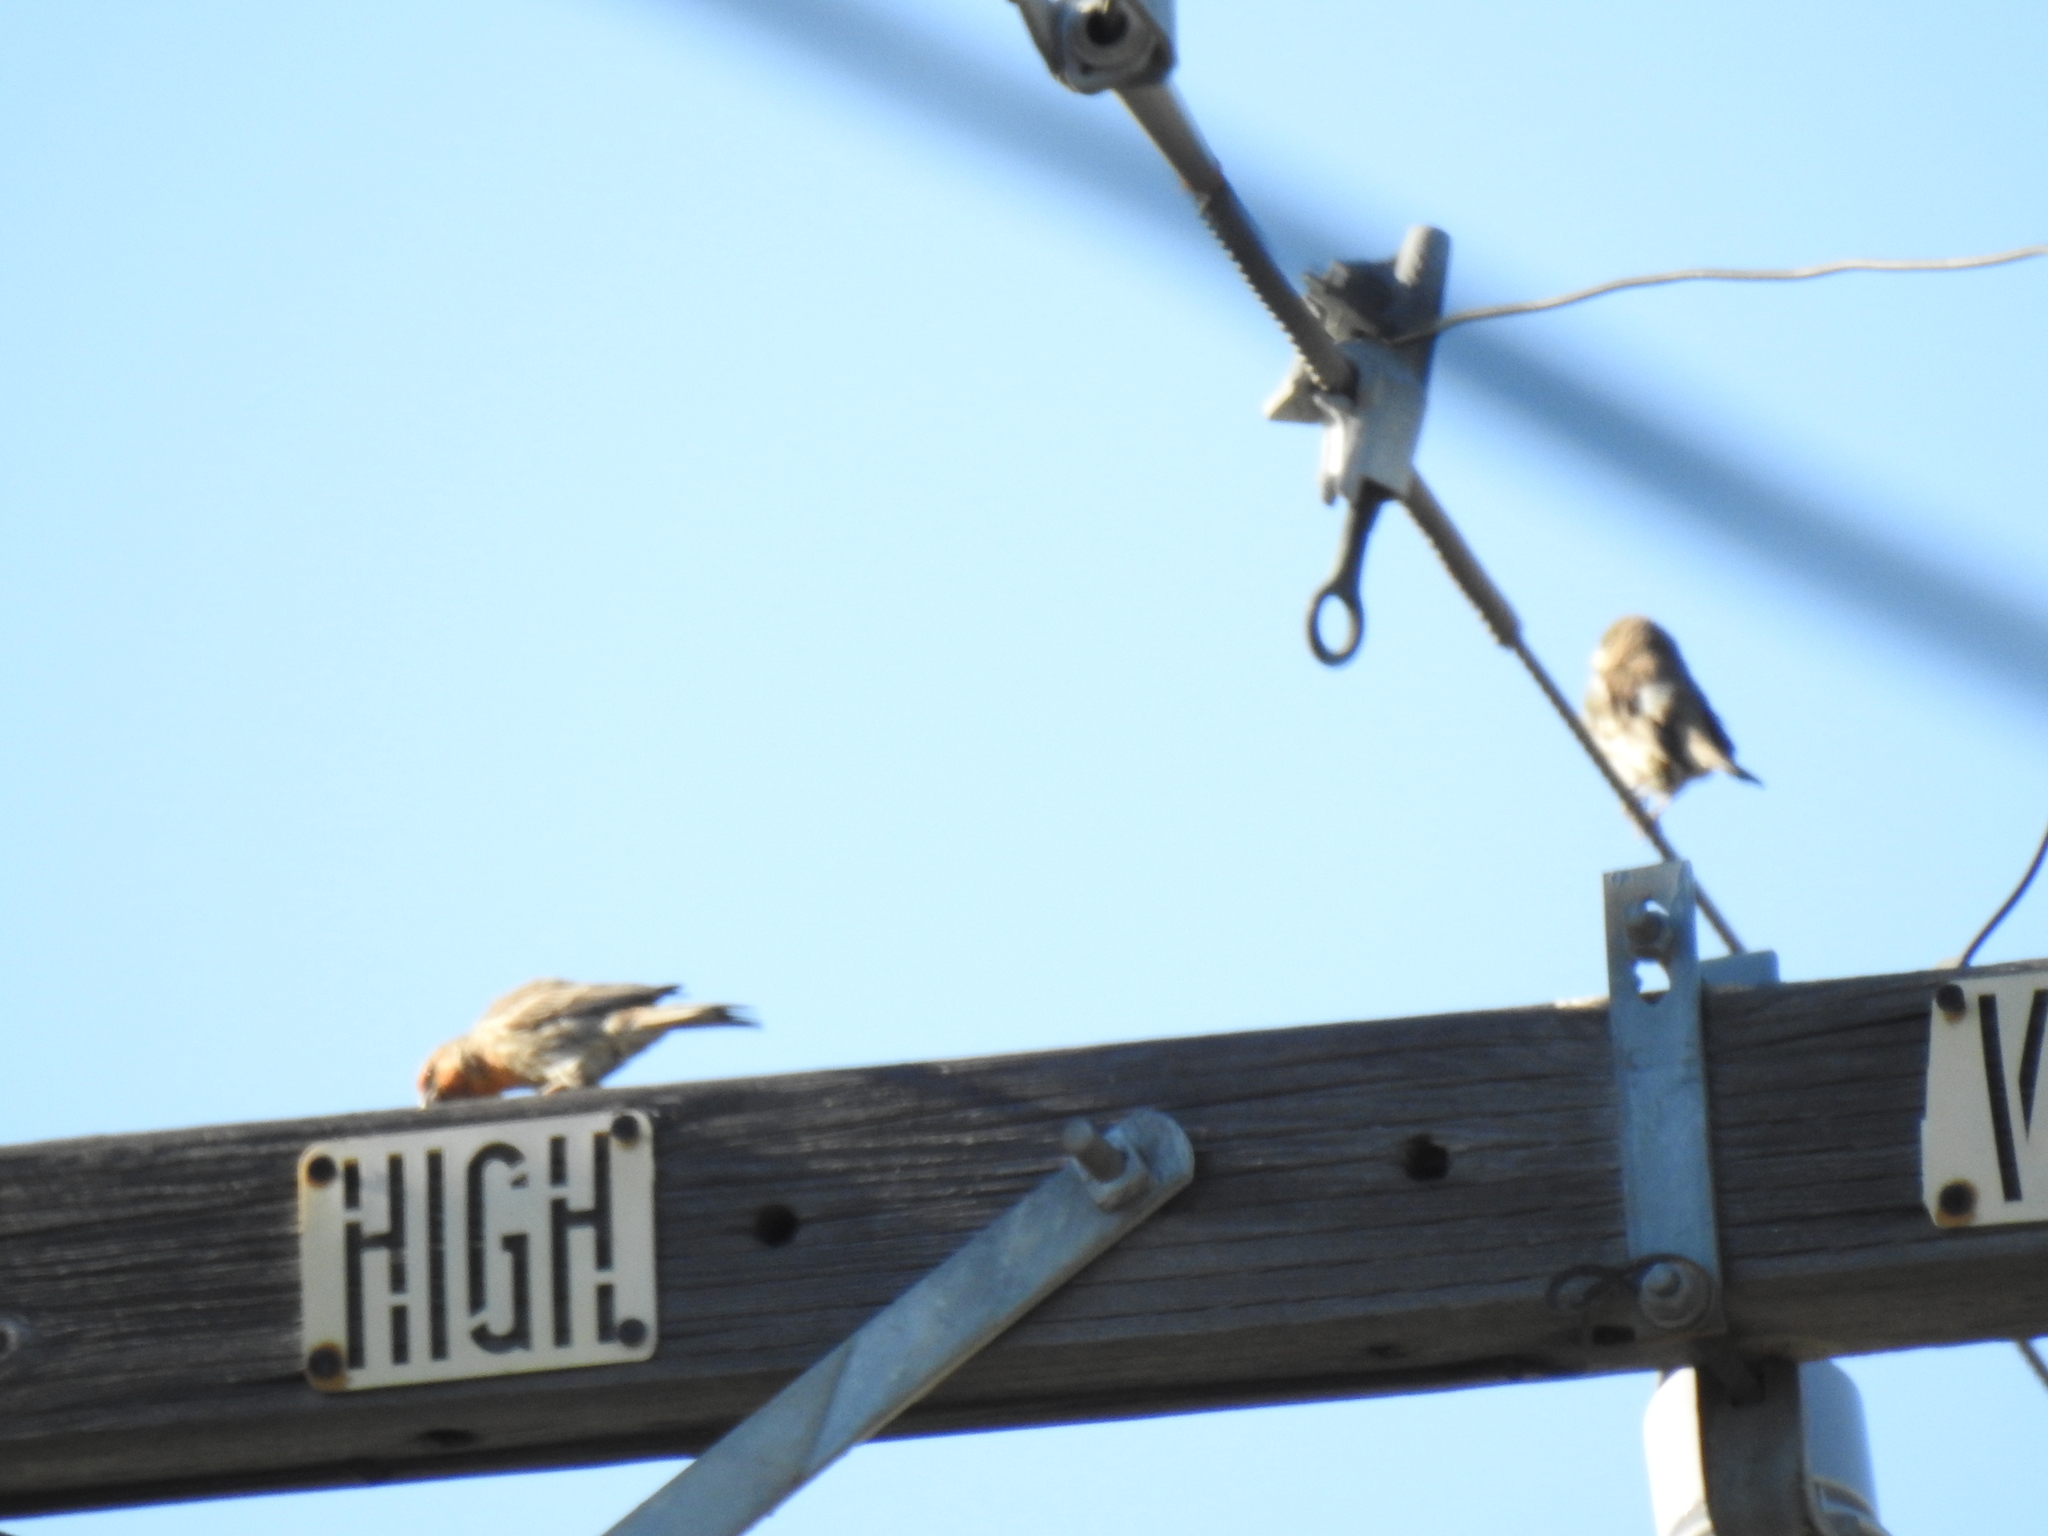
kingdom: Animalia
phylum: Chordata
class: Aves
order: Passeriformes
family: Fringillidae
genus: Haemorhous
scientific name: Haemorhous mexicanus
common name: House finch
